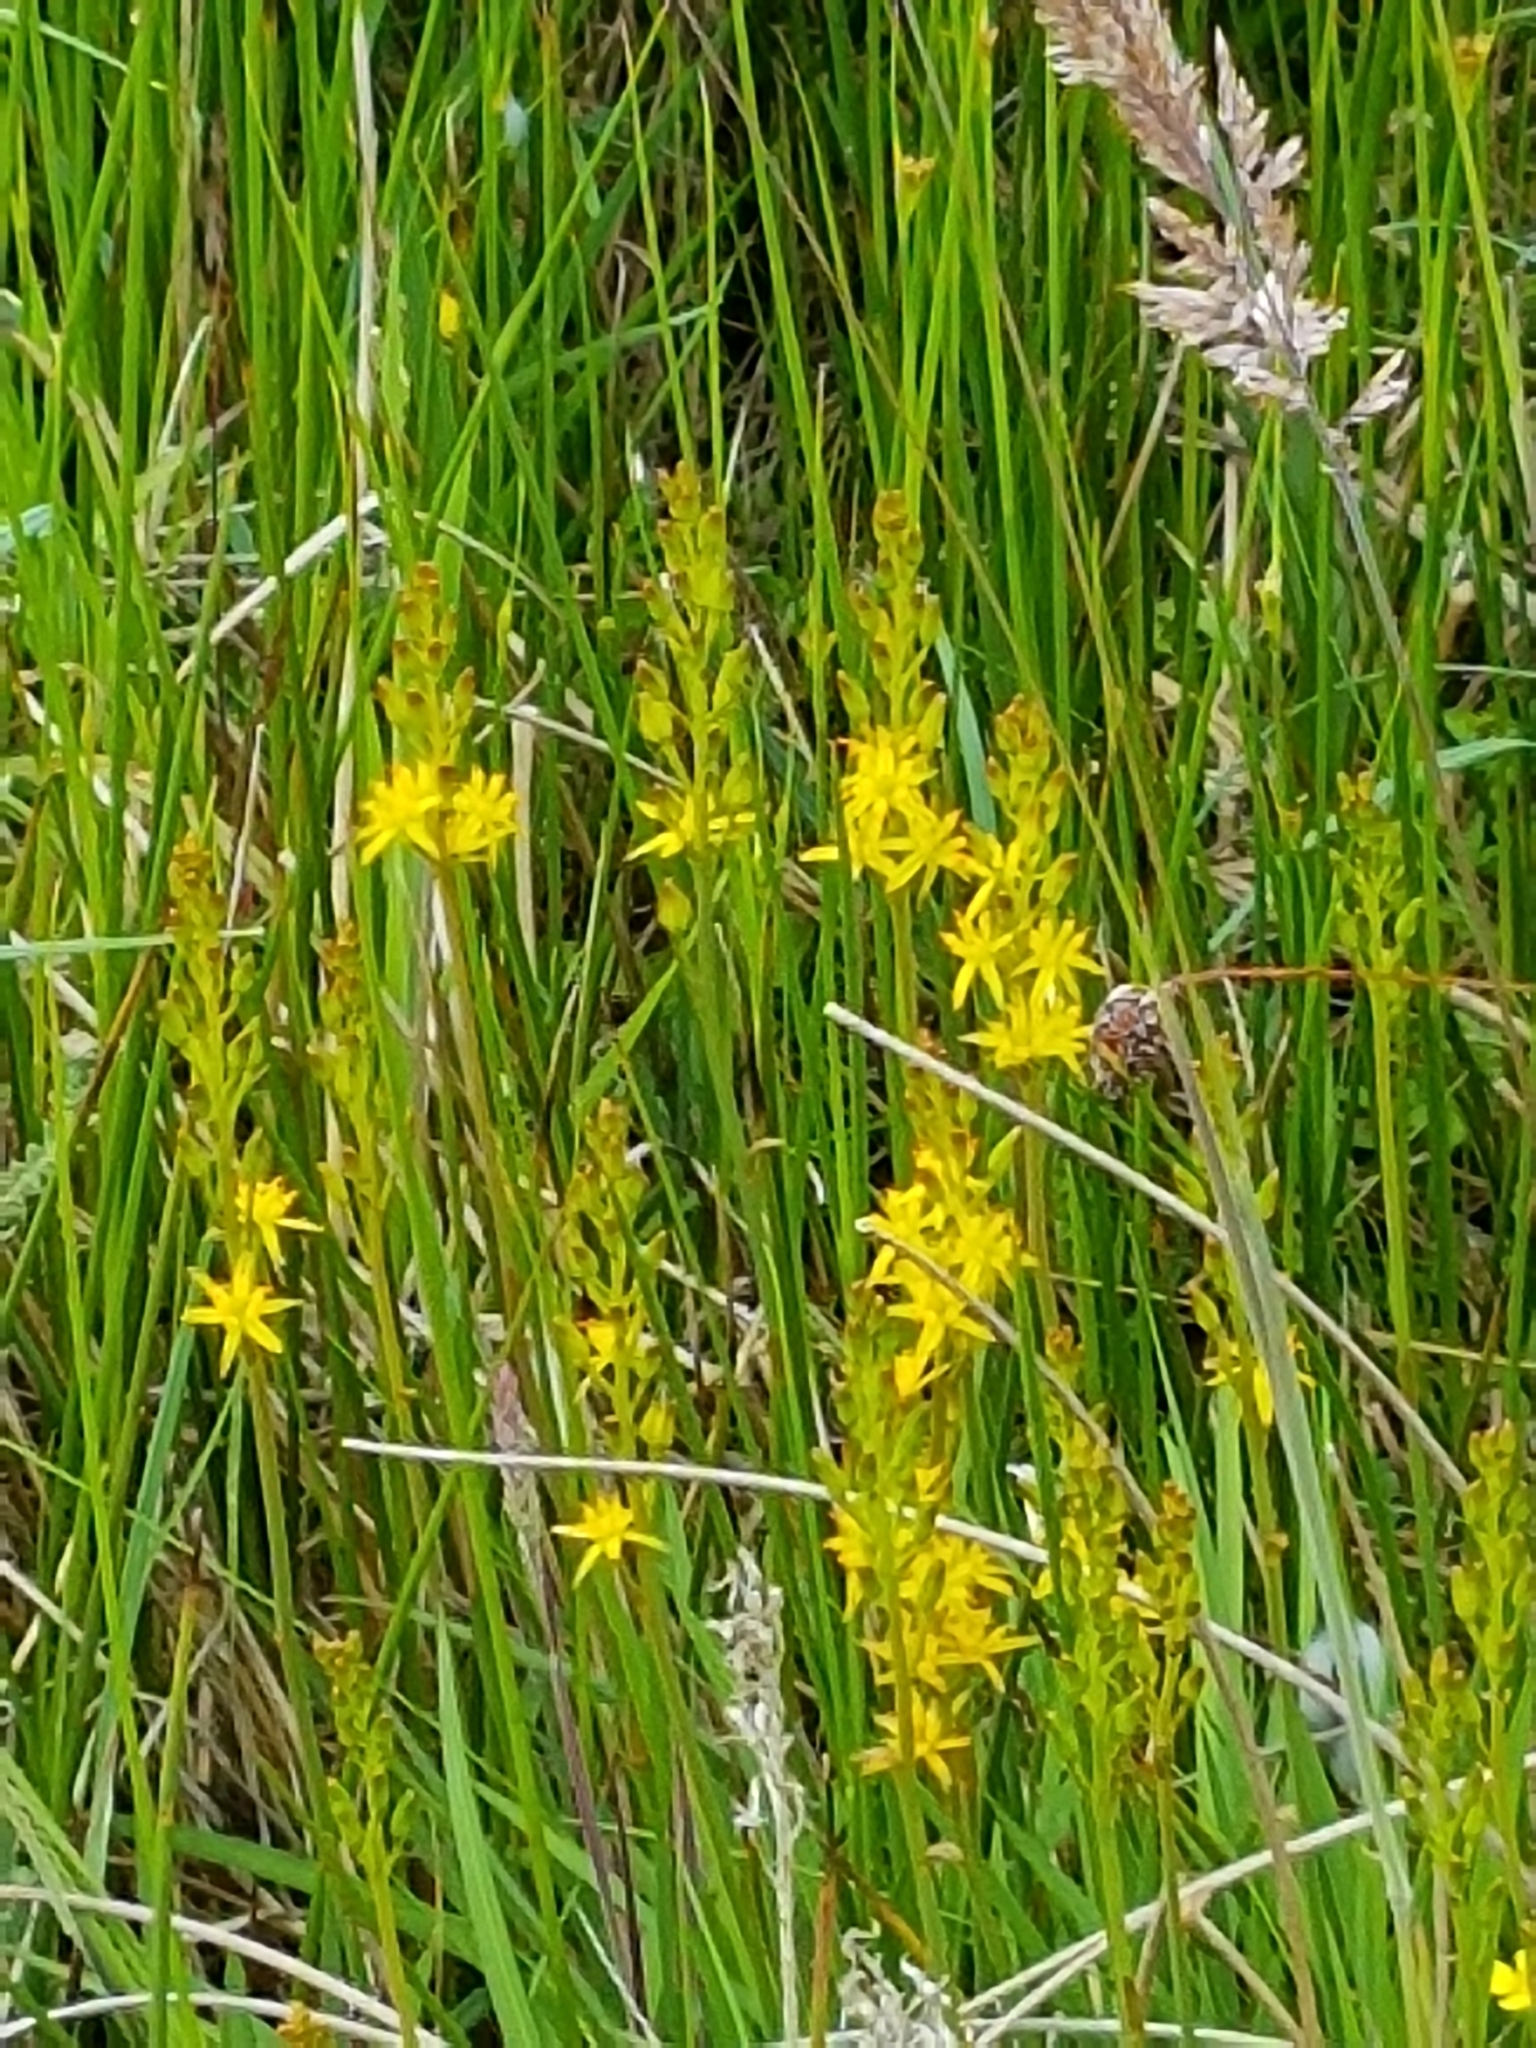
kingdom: Plantae
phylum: Tracheophyta
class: Liliopsida
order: Dioscoreales
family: Nartheciaceae
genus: Narthecium
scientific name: Narthecium ossifragum
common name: Bog asphodel
